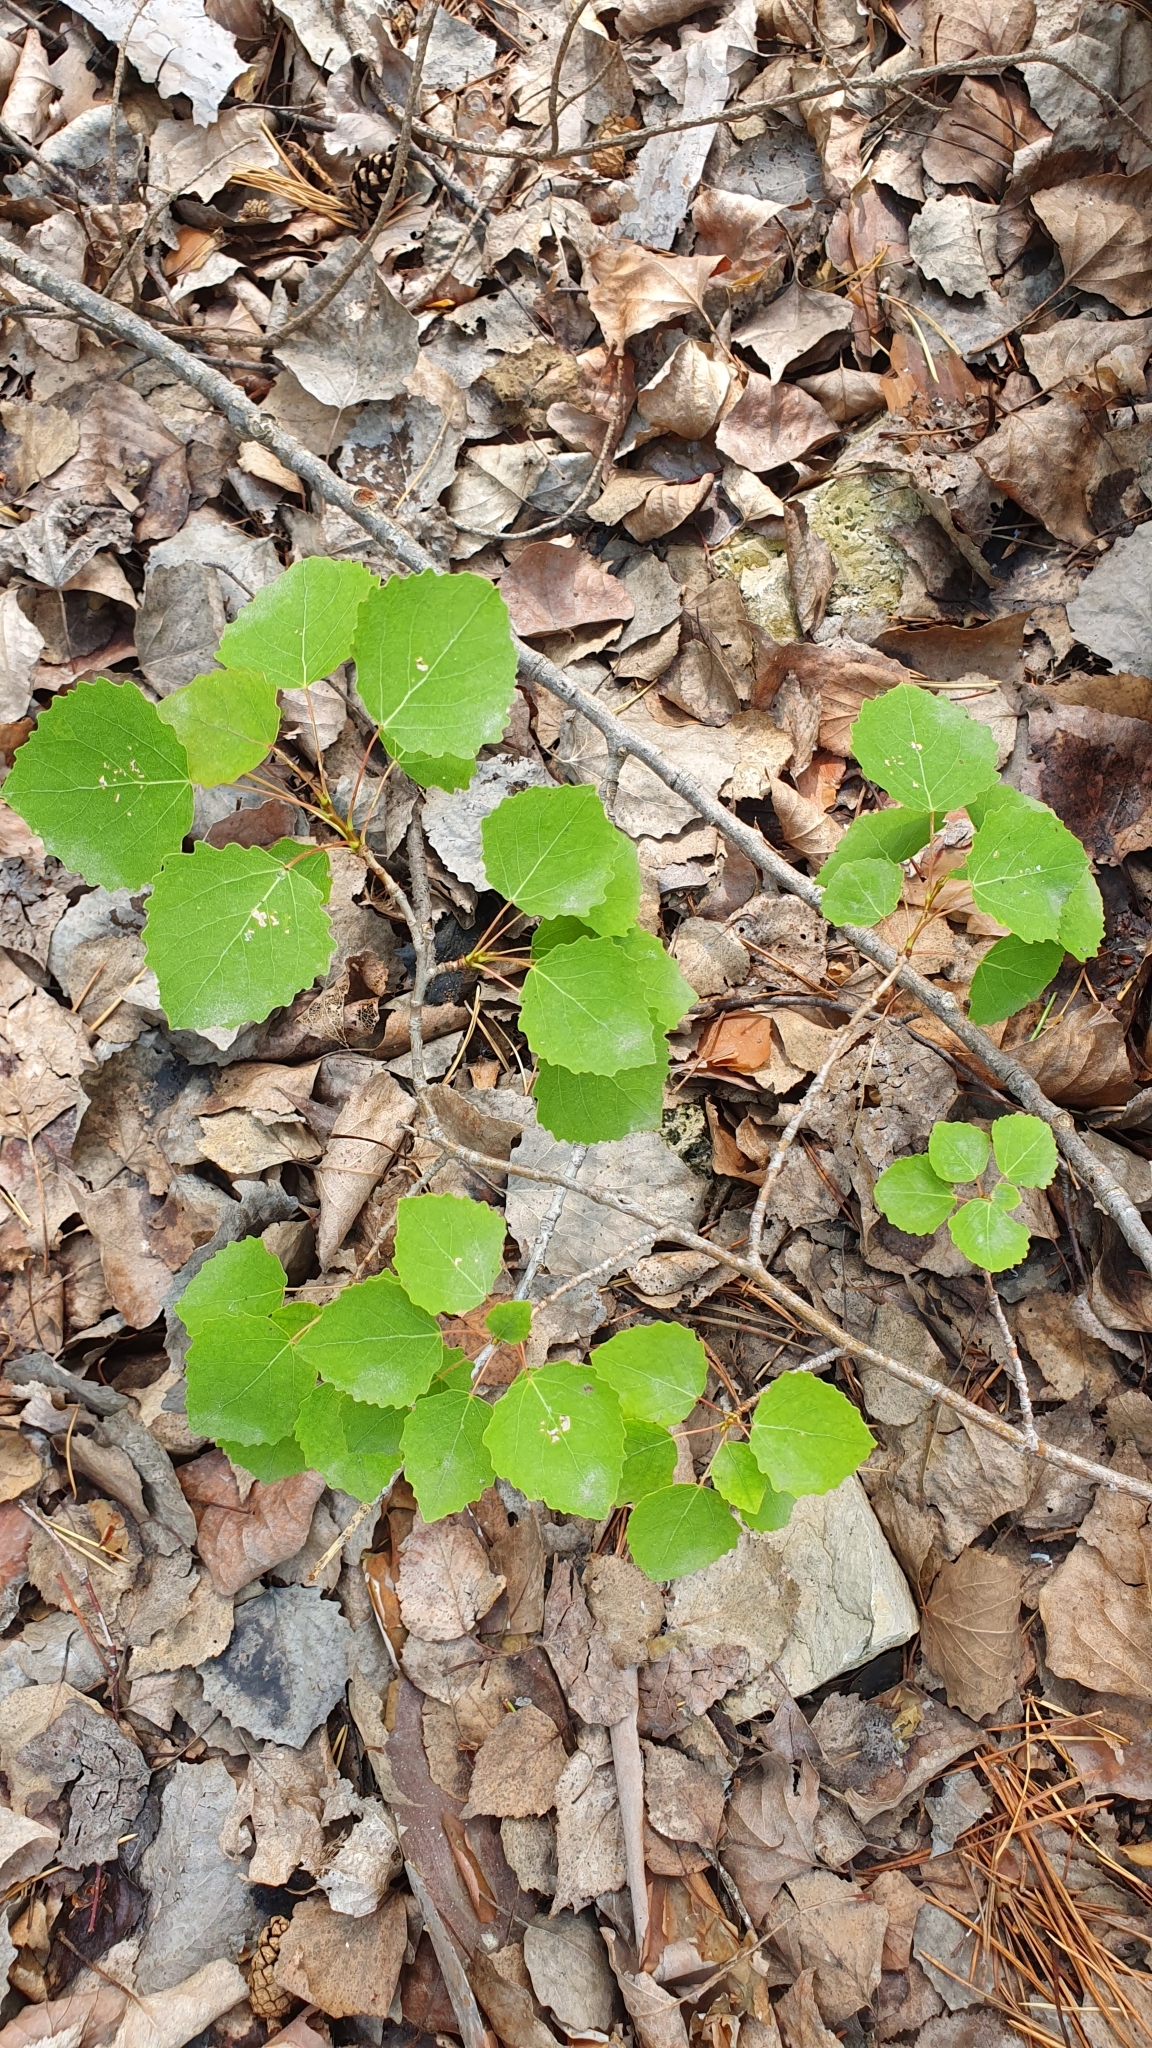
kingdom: Plantae
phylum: Tracheophyta
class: Magnoliopsida
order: Malpighiales
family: Salicaceae
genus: Populus
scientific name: Populus tremula
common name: European aspen
